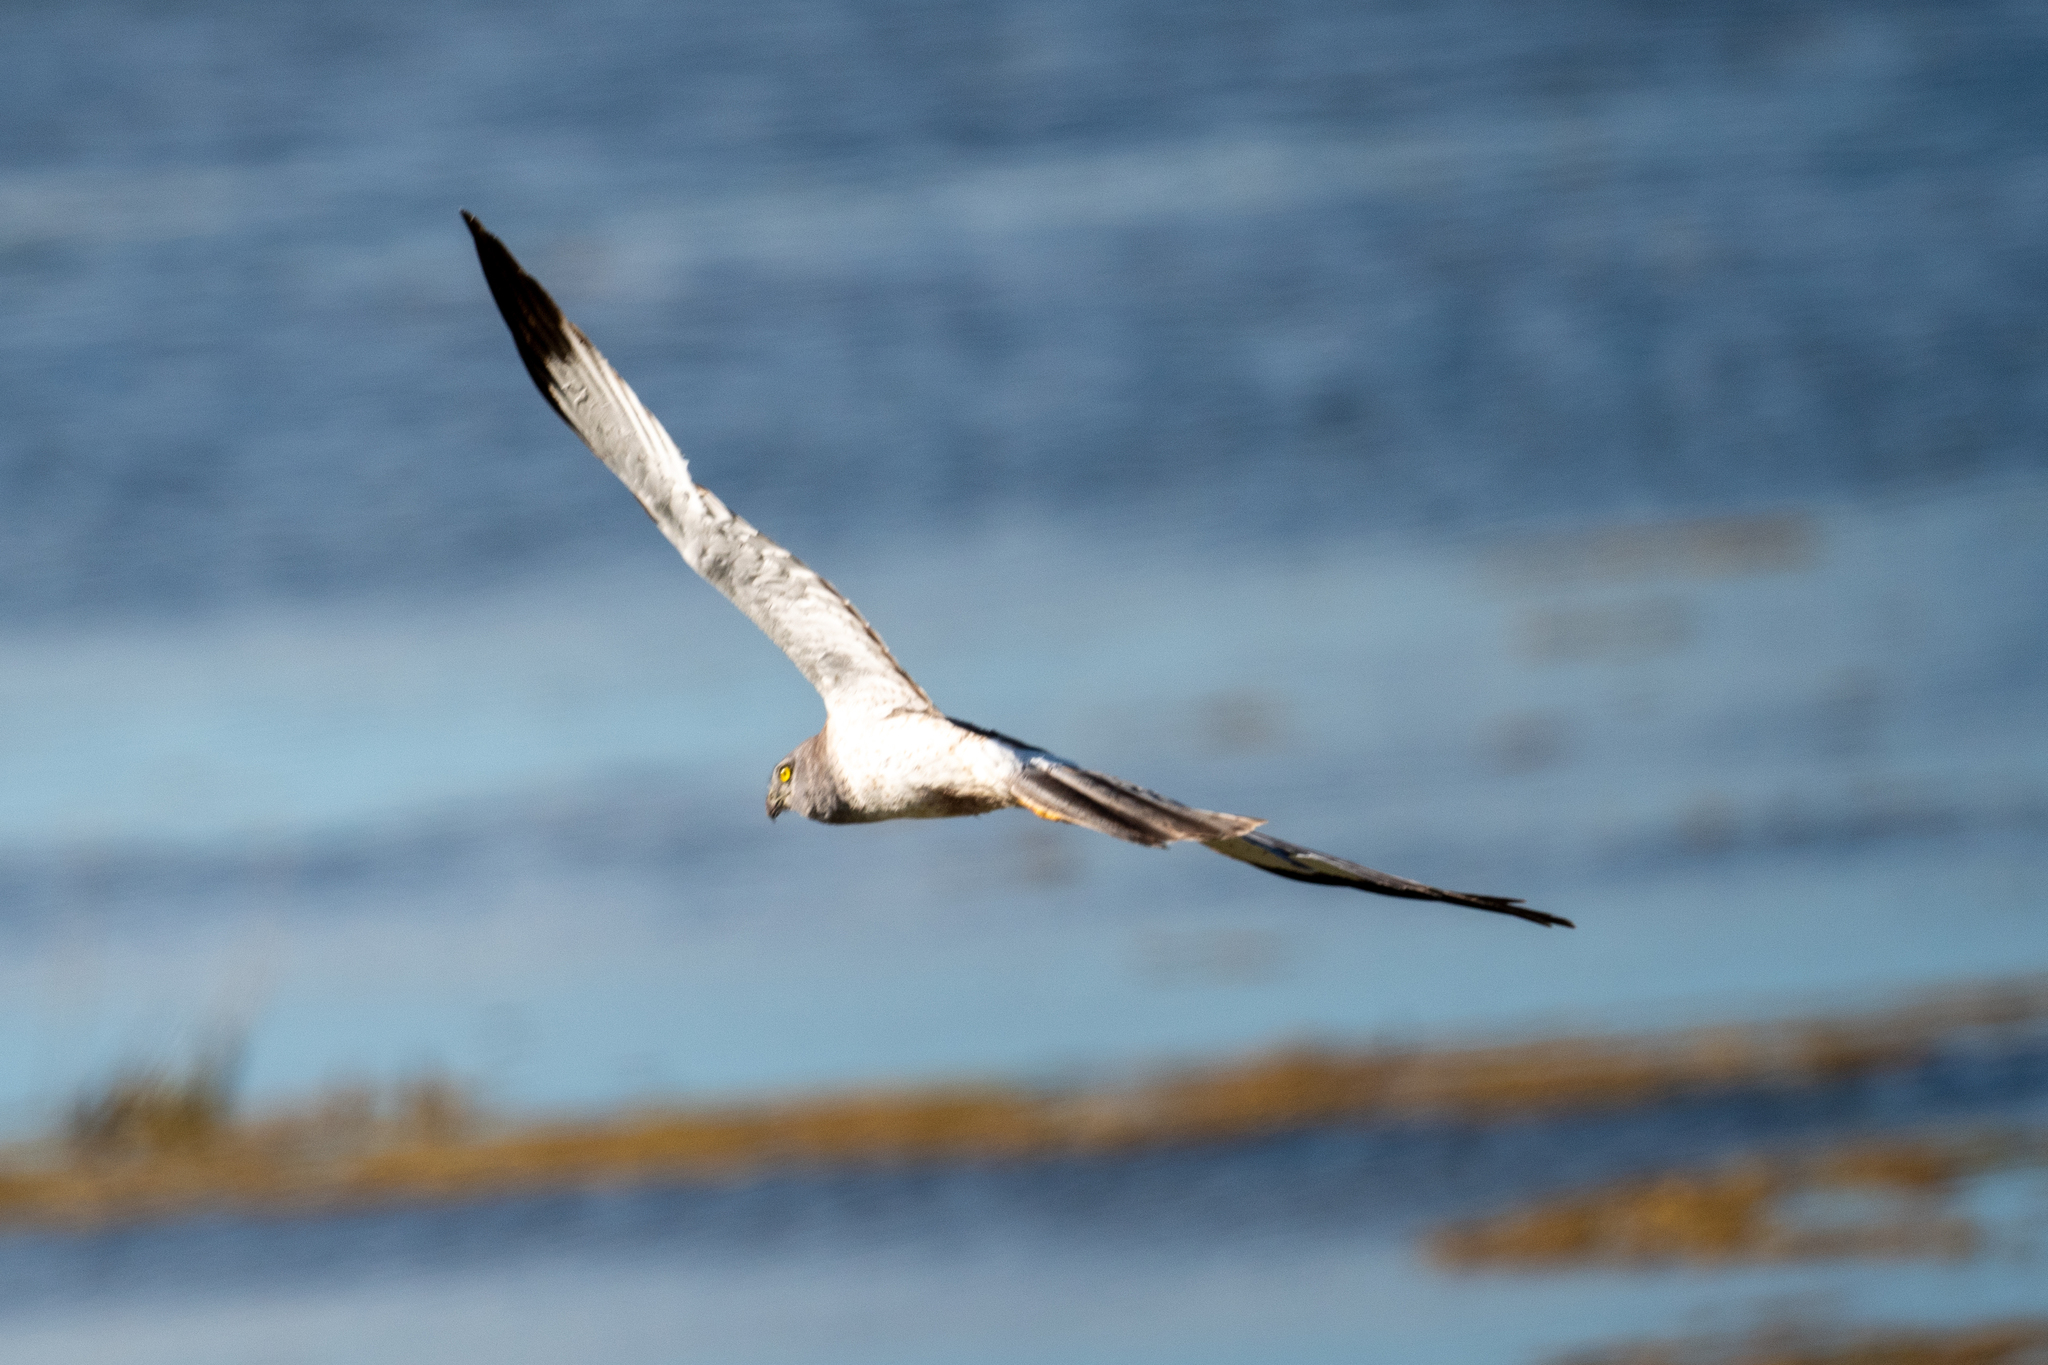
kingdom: Animalia
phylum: Chordata
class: Aves
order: Accipitriformes
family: Accipitridae
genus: Circus
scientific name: Circus cyaneus
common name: Hen harrier
